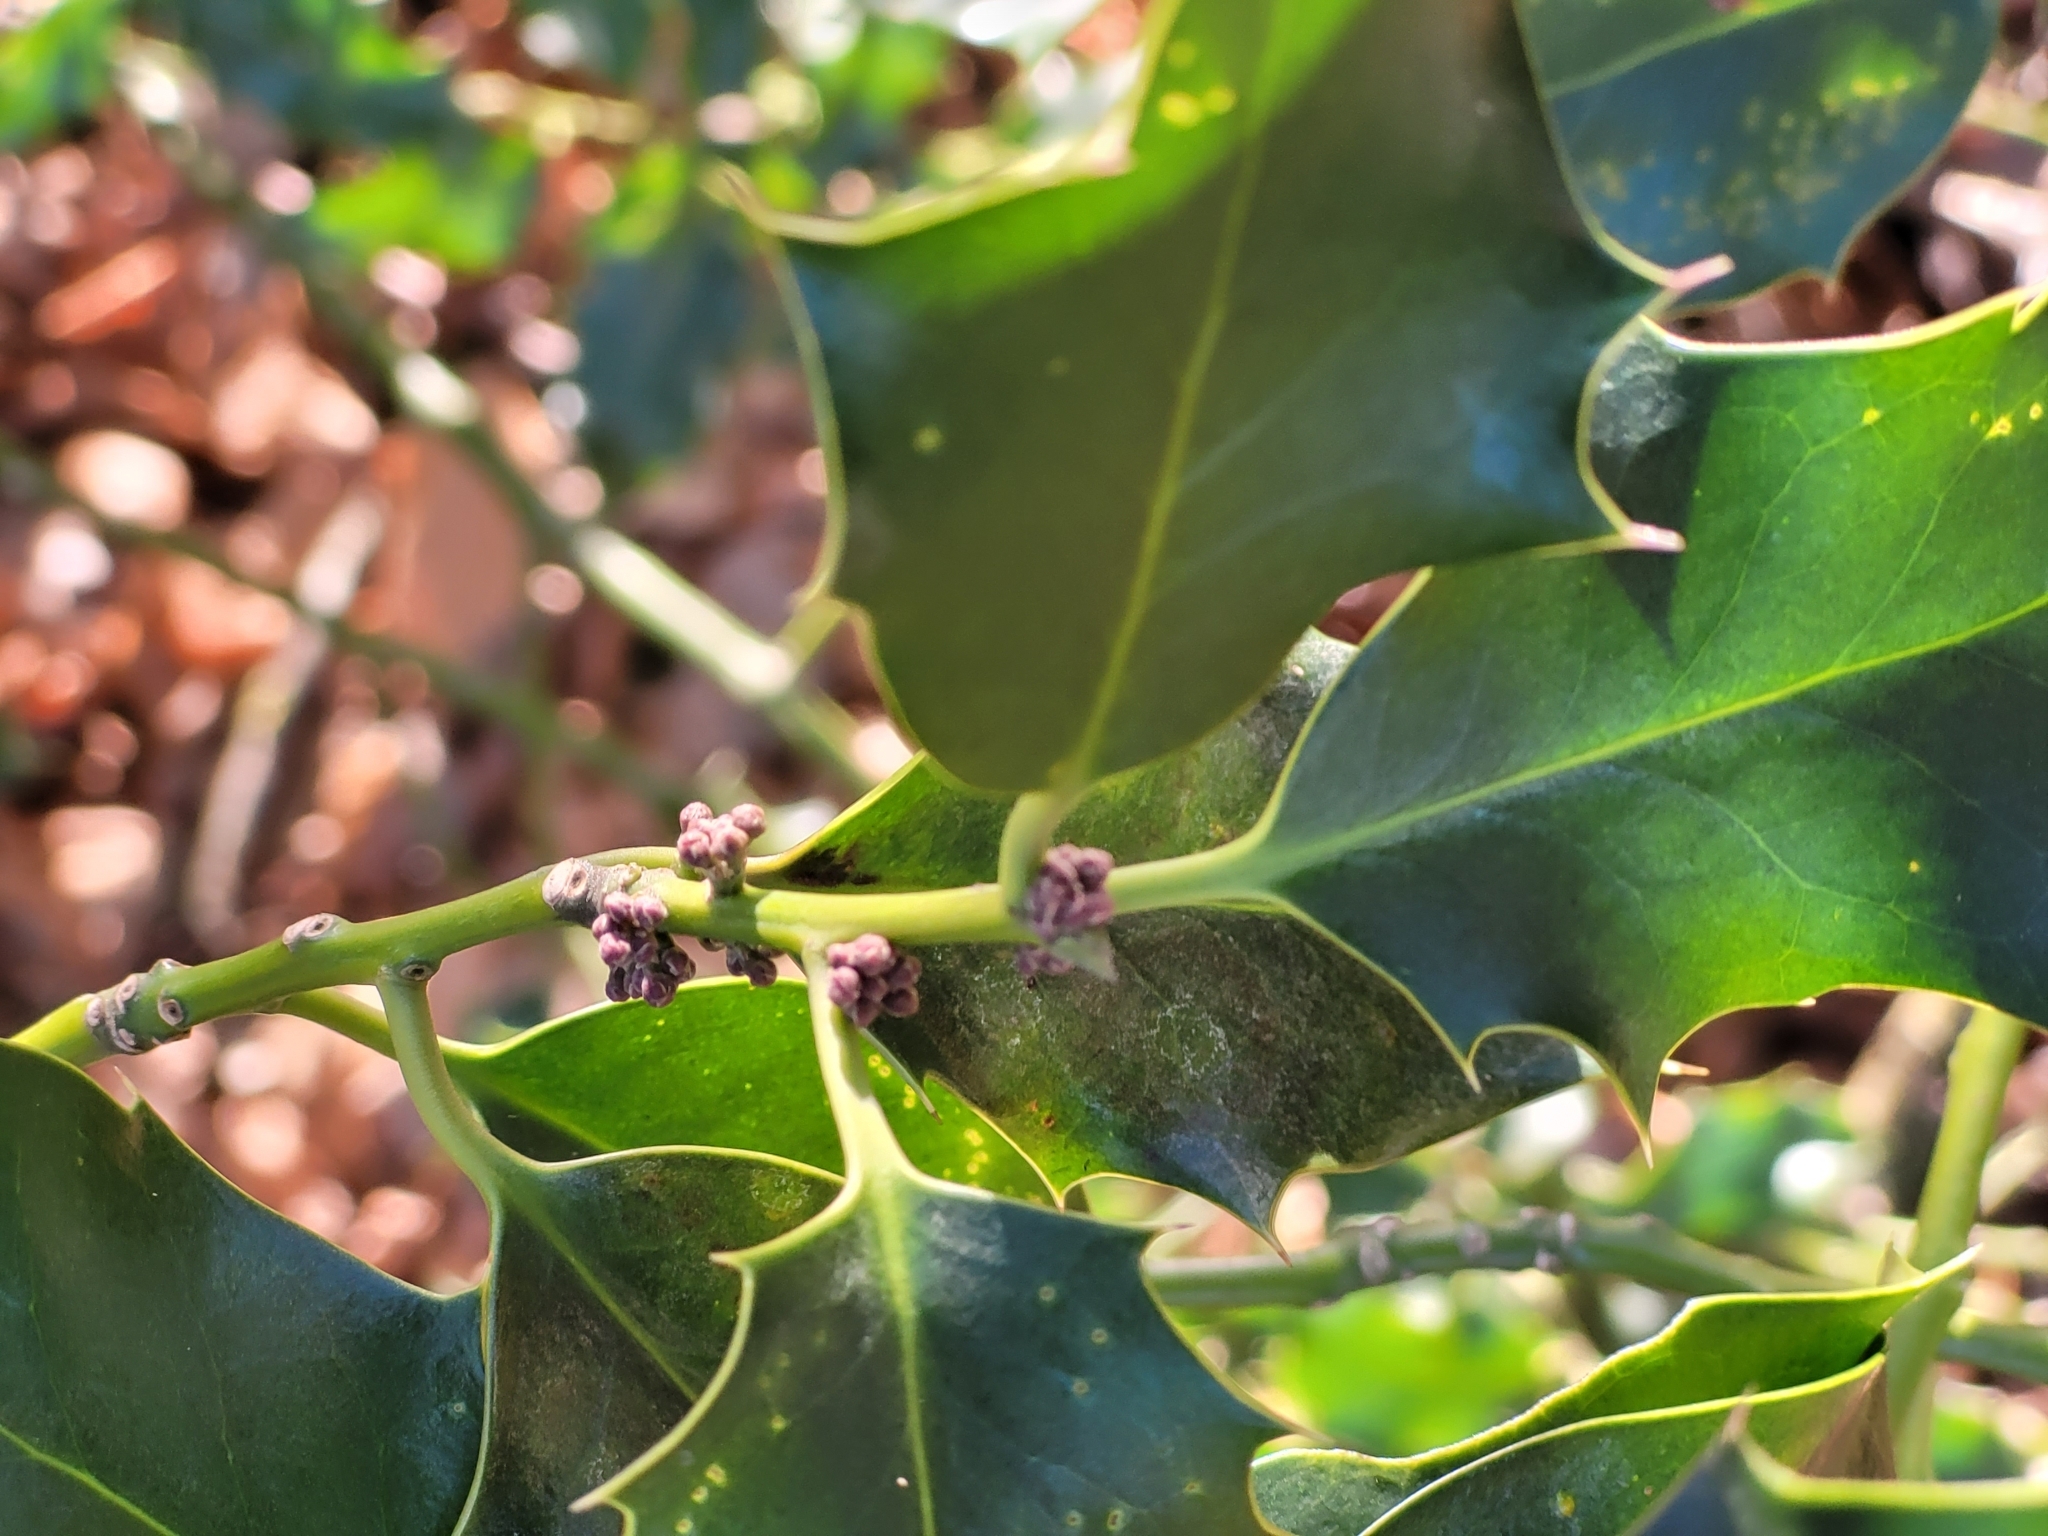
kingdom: Plantae
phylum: Tracheophyta
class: Magnoliopsida
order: Aquifoliales
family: Aquifoliaceae
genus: Ilex
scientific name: Ilex aquifolium
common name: English holly
